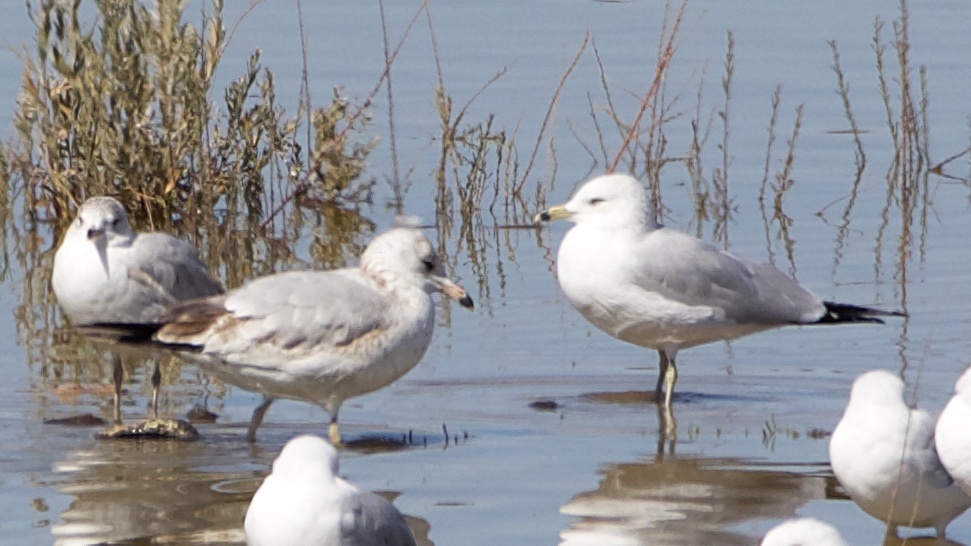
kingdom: Animalia
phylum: Chordata
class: Aves
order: Charadriiformes
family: Laridae
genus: Larus
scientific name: Larus delawarensis
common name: Ring-billed gull
